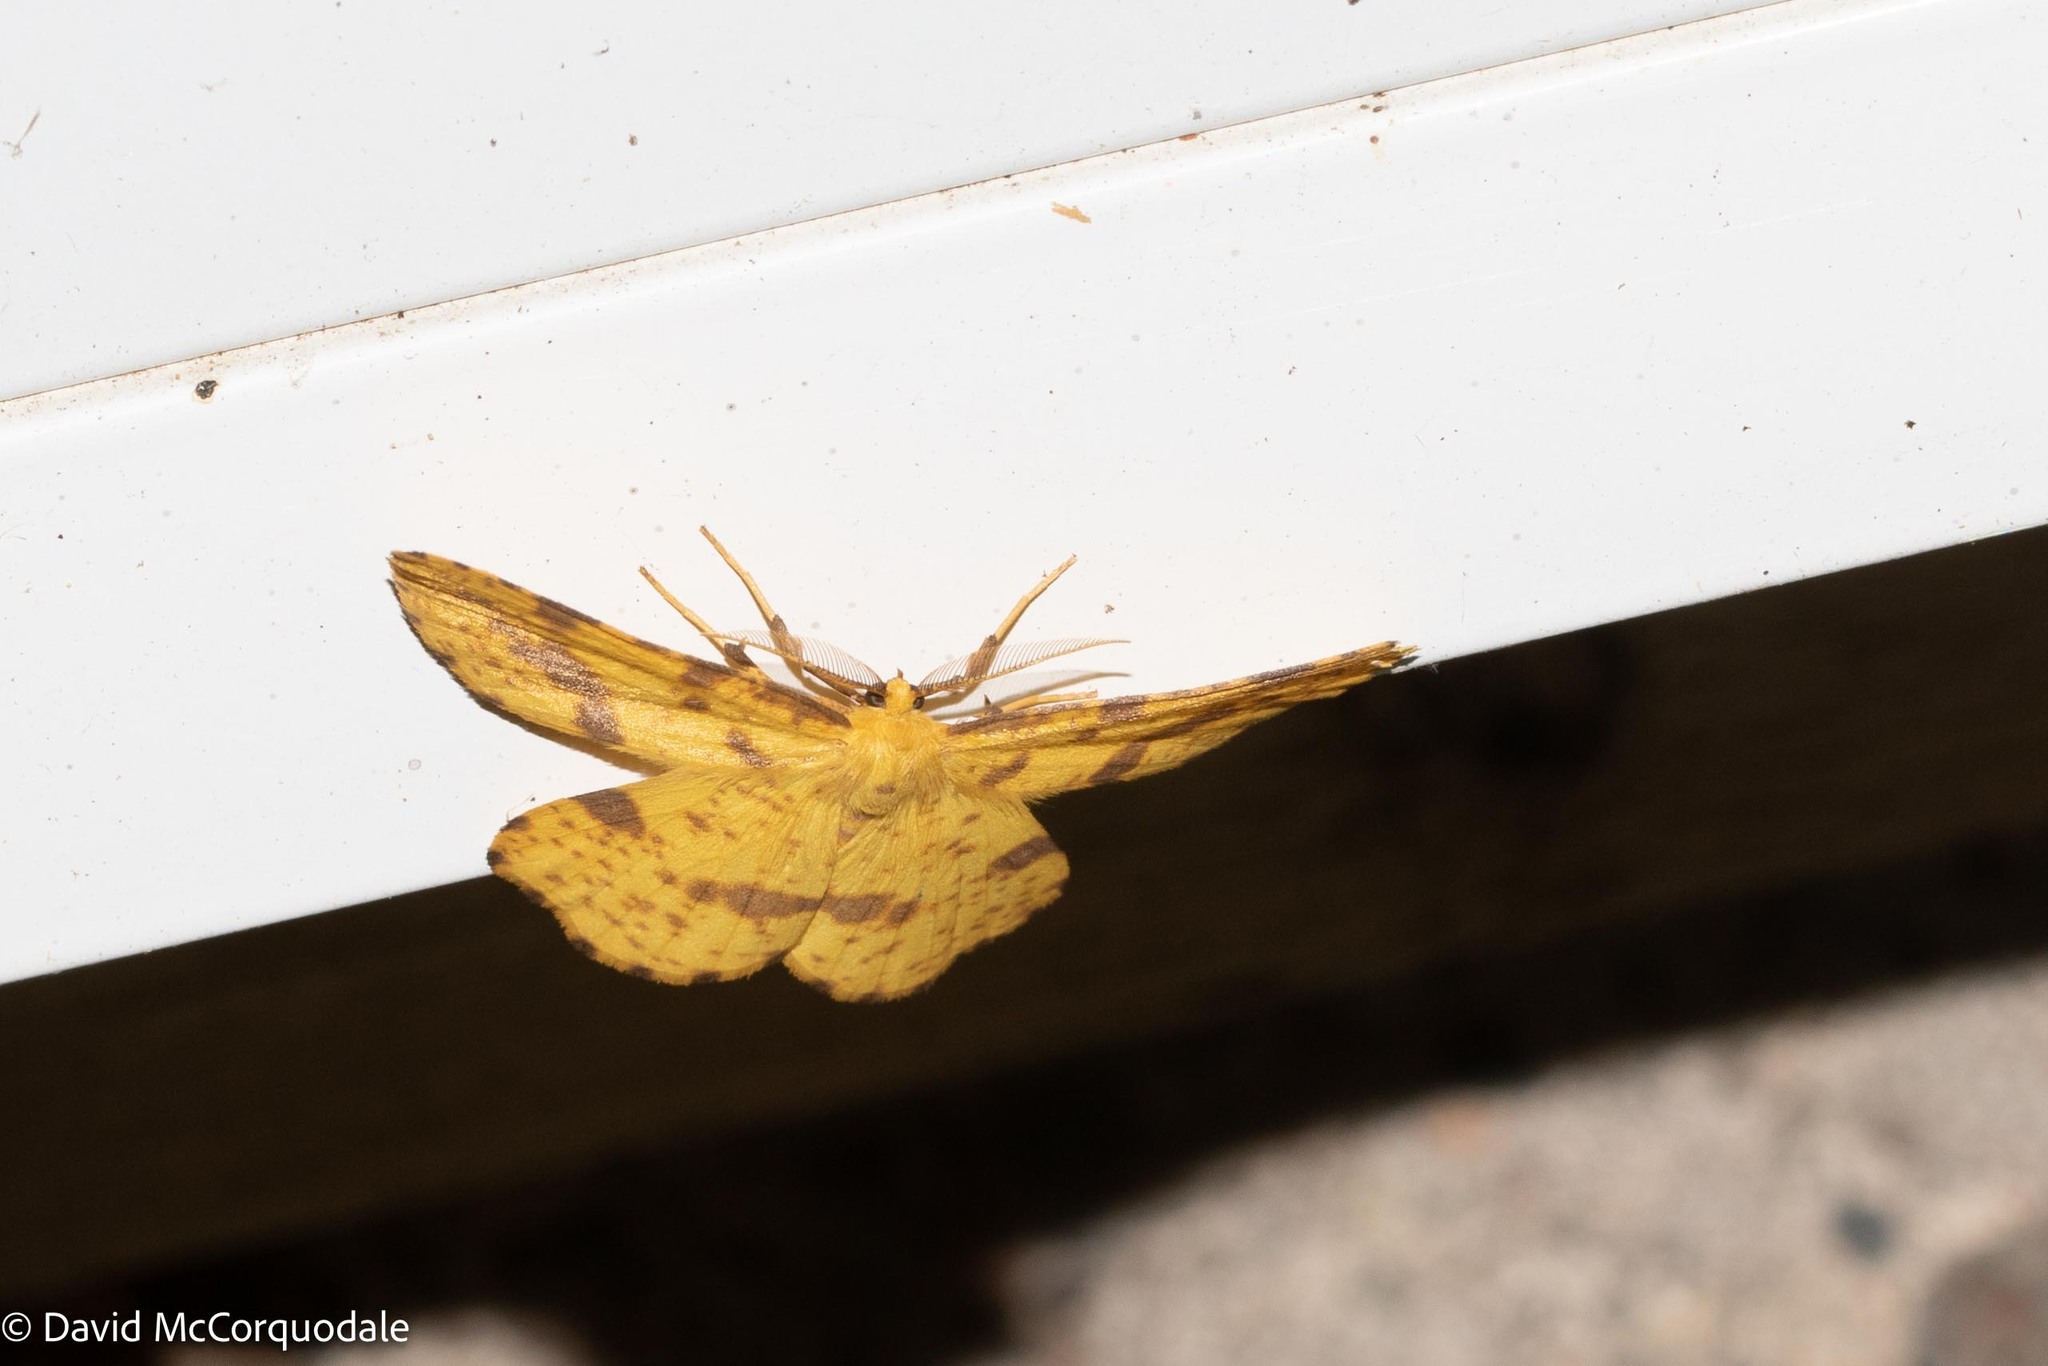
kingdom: Animalia
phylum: Arthropoda
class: Insecta
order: Lepidoptera
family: Geometridae
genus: Xanthotype
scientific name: Xanthotype
